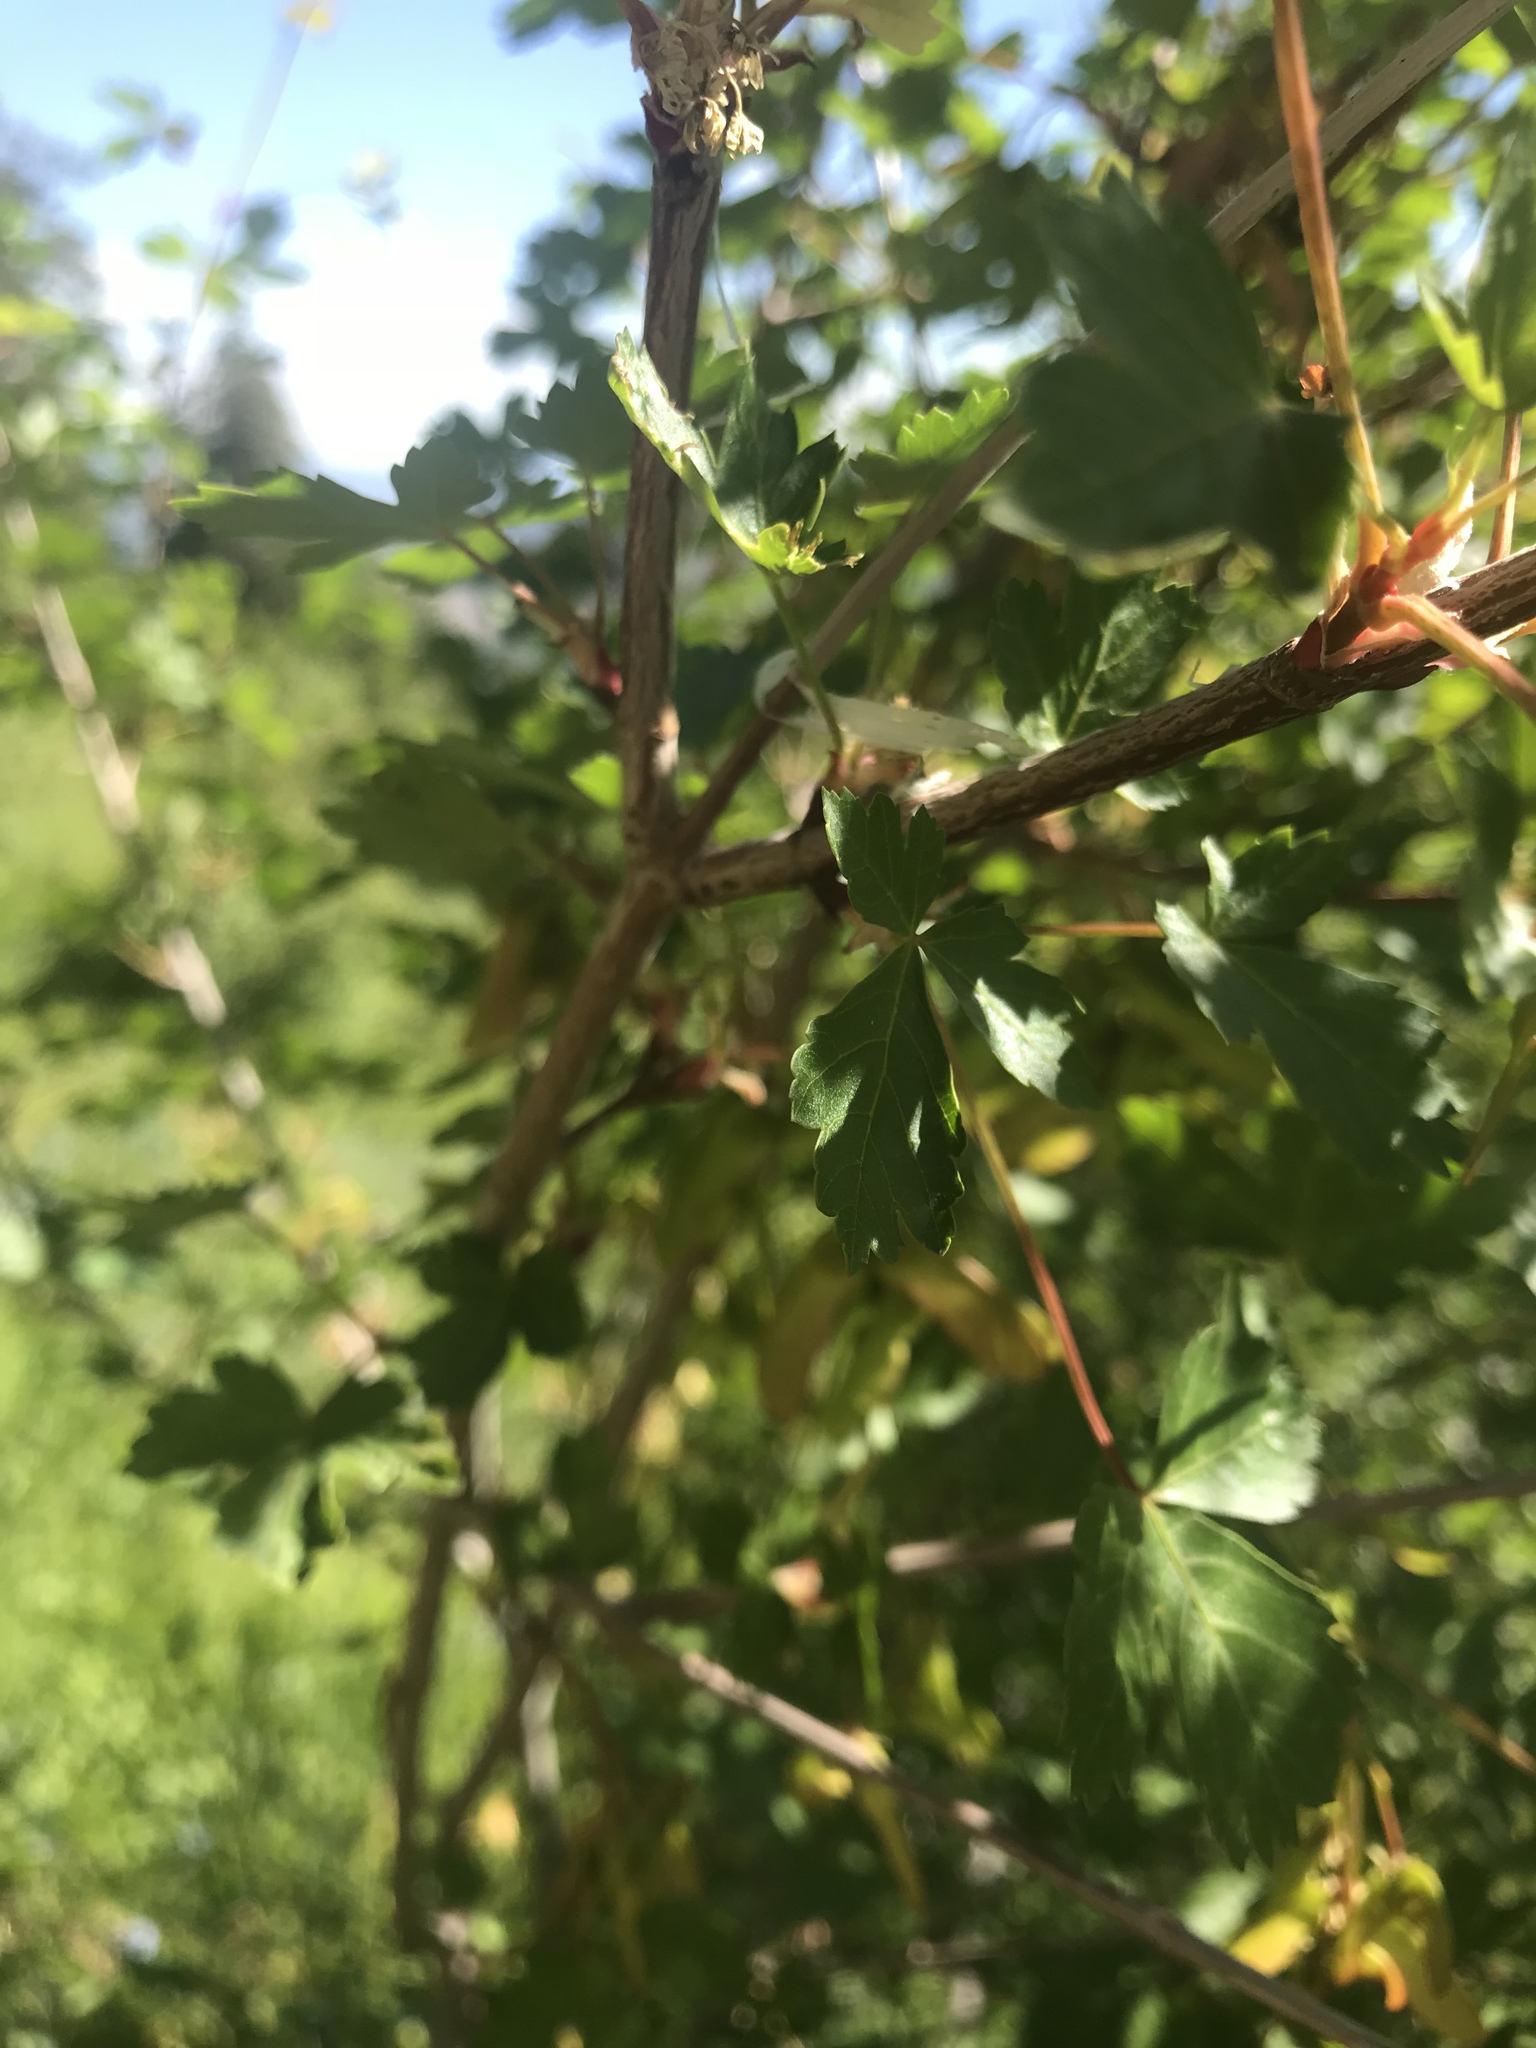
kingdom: Plantae
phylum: Tracheophyta
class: Magnoliopsida
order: Sapindales
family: Sapindaceae
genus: Acer
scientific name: Acer glabrum
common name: Rocky mountain maple
